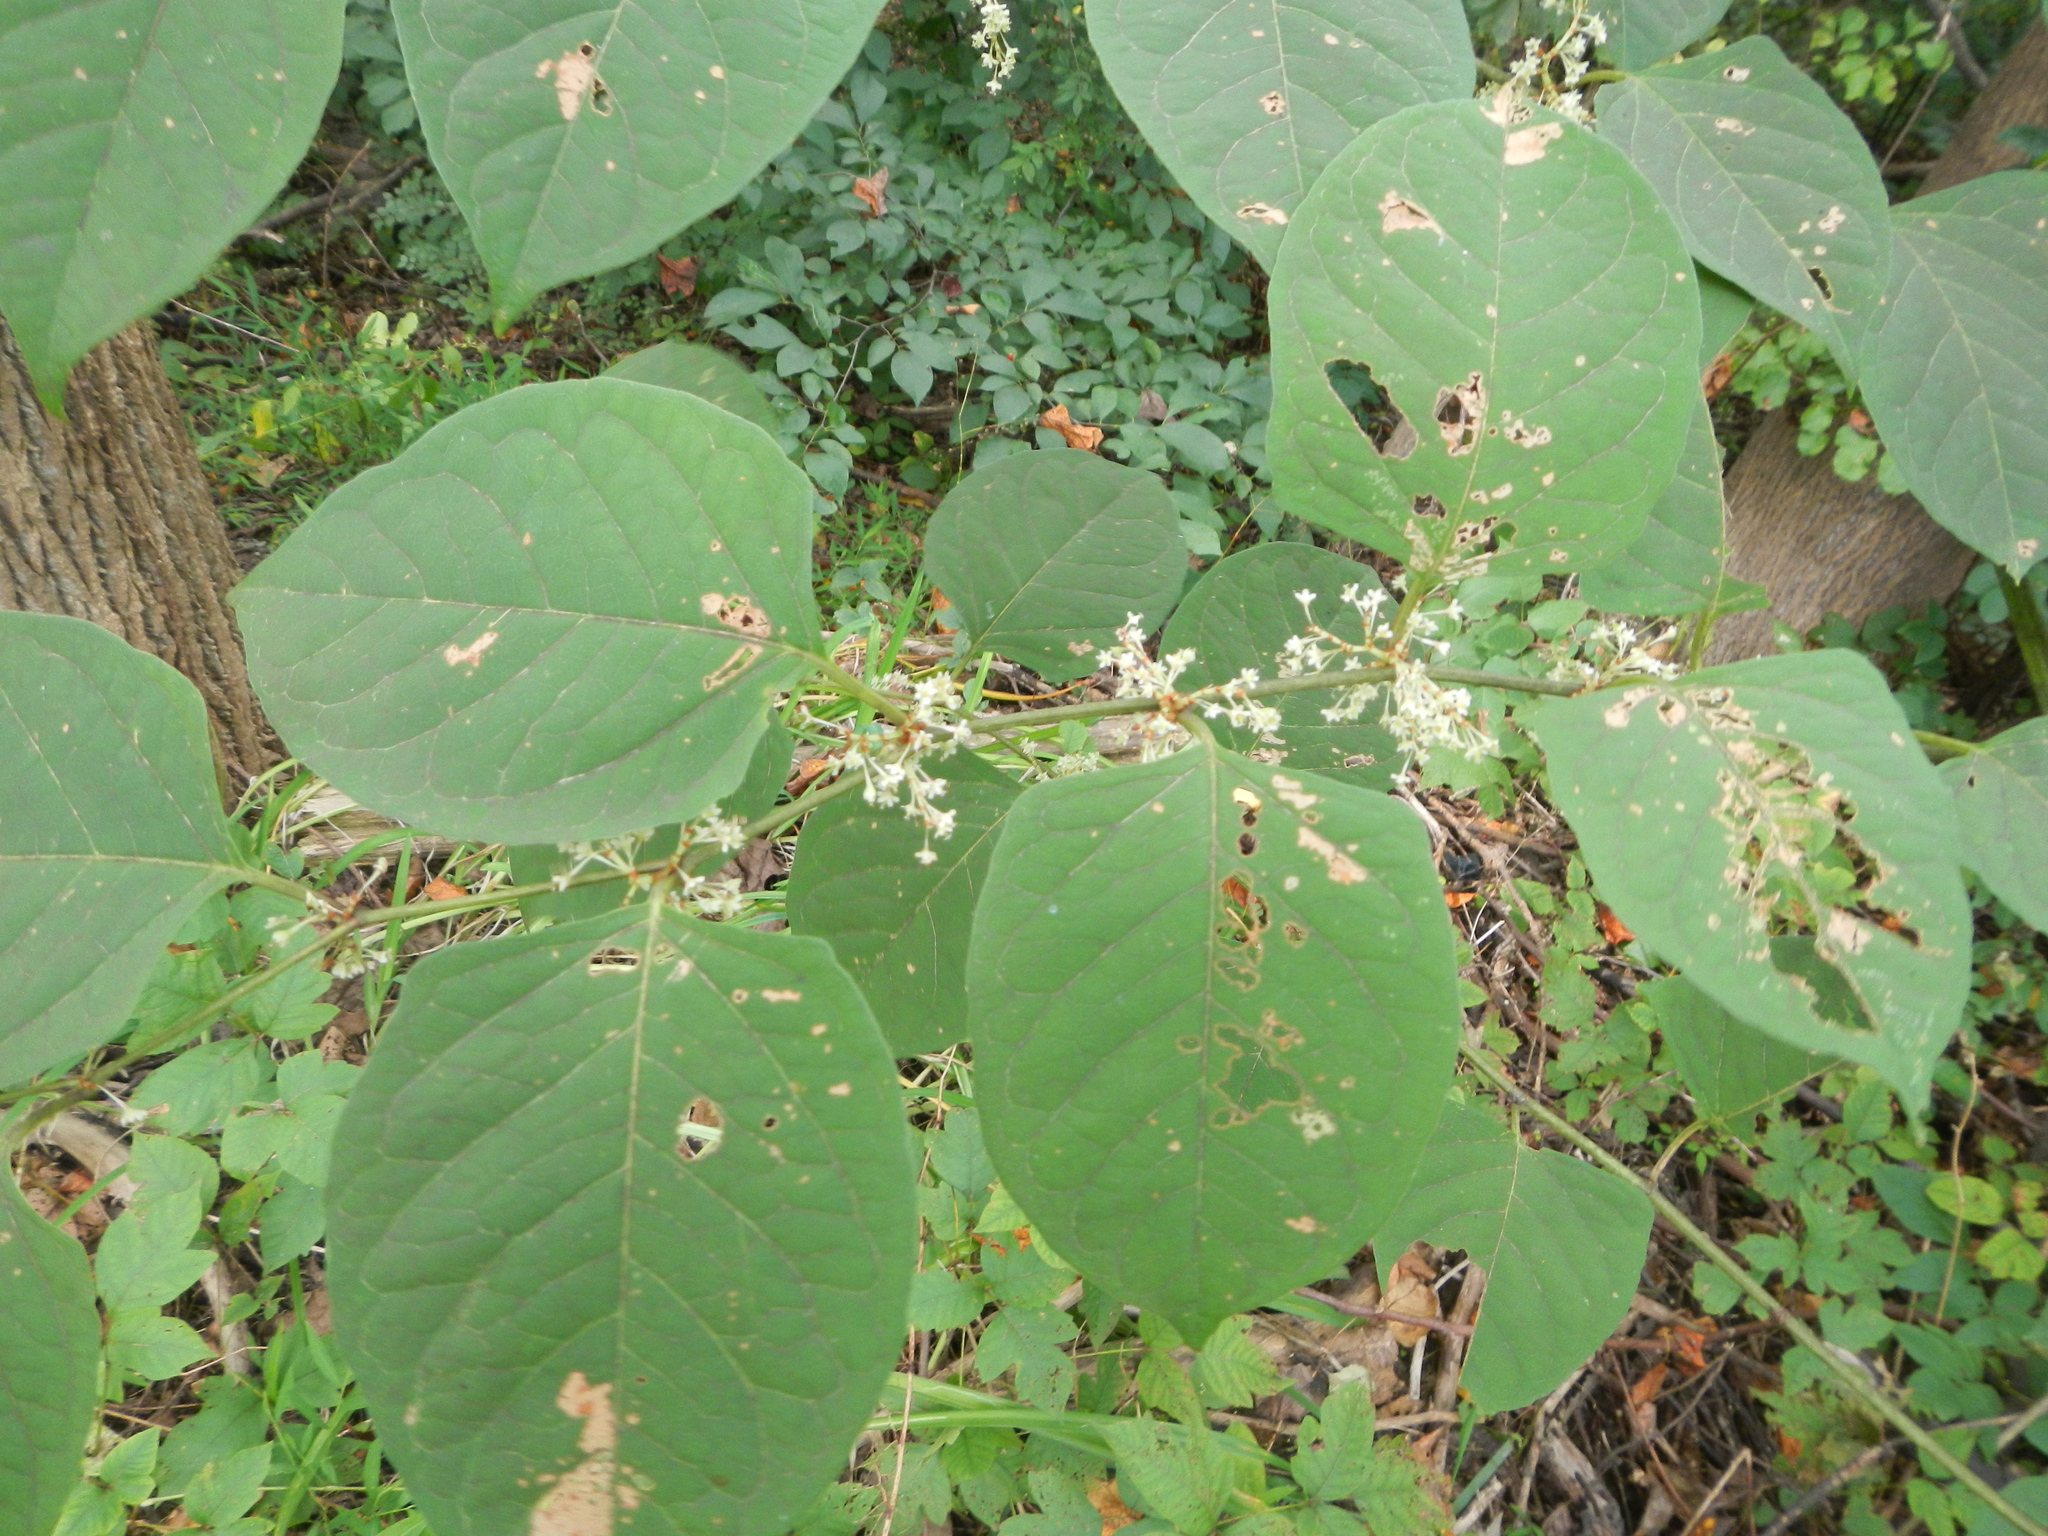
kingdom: Plantae
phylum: Tracheophyta
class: Magnoliopsida
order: Caryophyllales
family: Polygonaceae
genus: Reynoutria
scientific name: Reynoutria japonica
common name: Japanese knotweed
